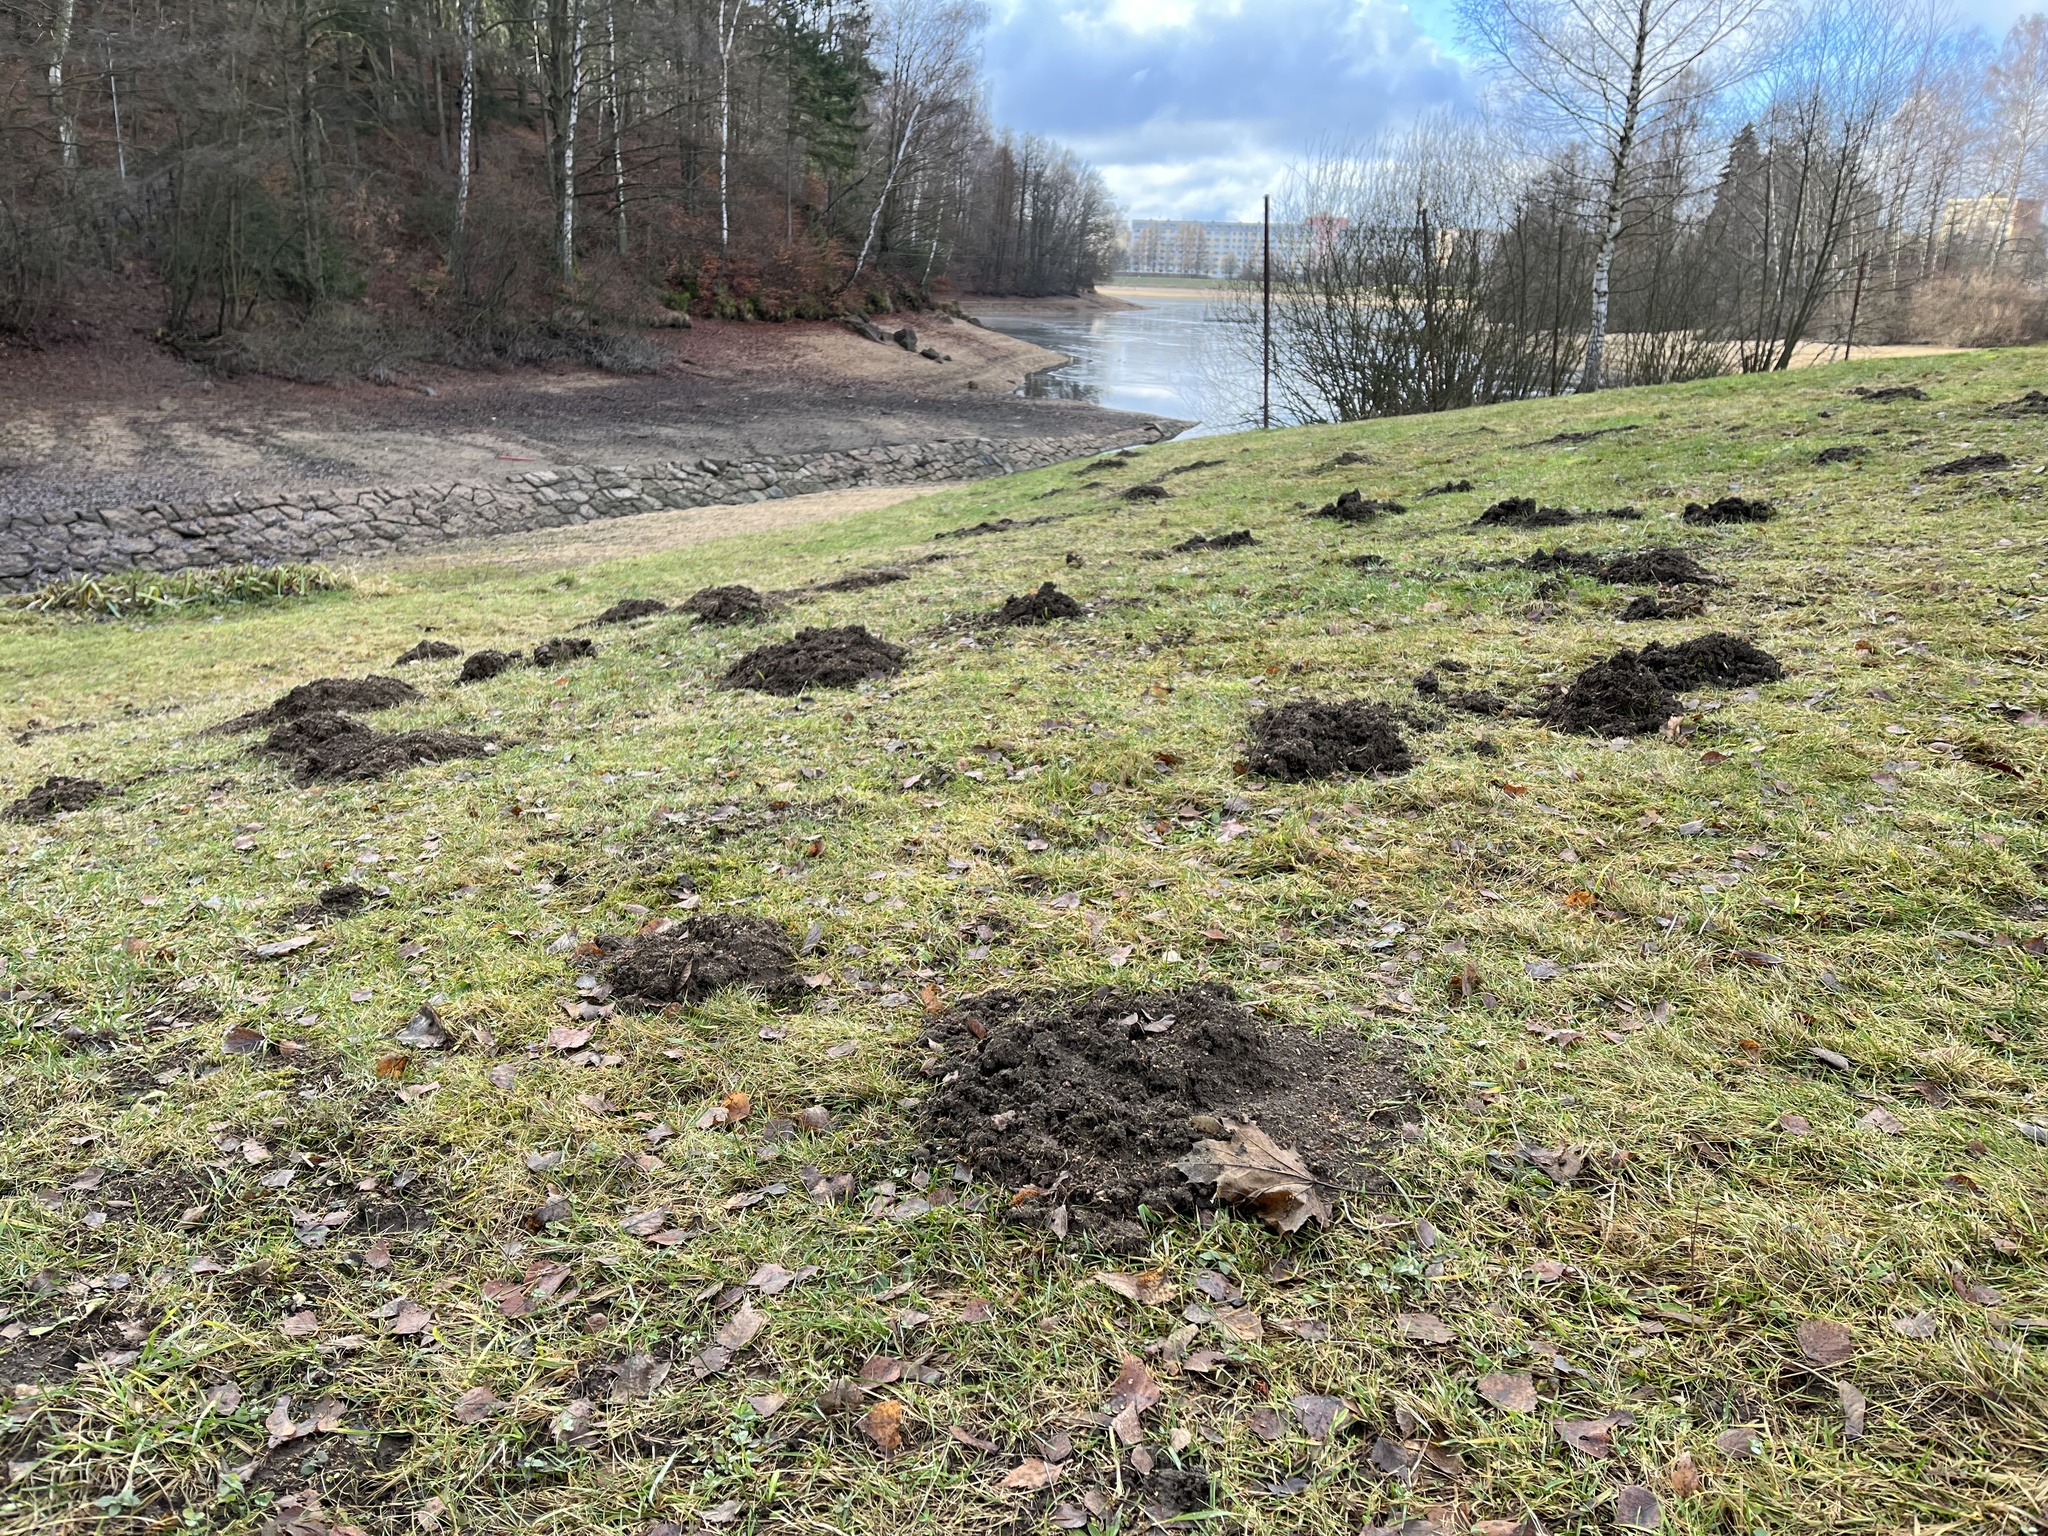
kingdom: Animalia
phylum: Chordata
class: Mammalia
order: Soricomorpha
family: Talpidae
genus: Talpa
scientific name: Talpa europaea
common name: European mole
